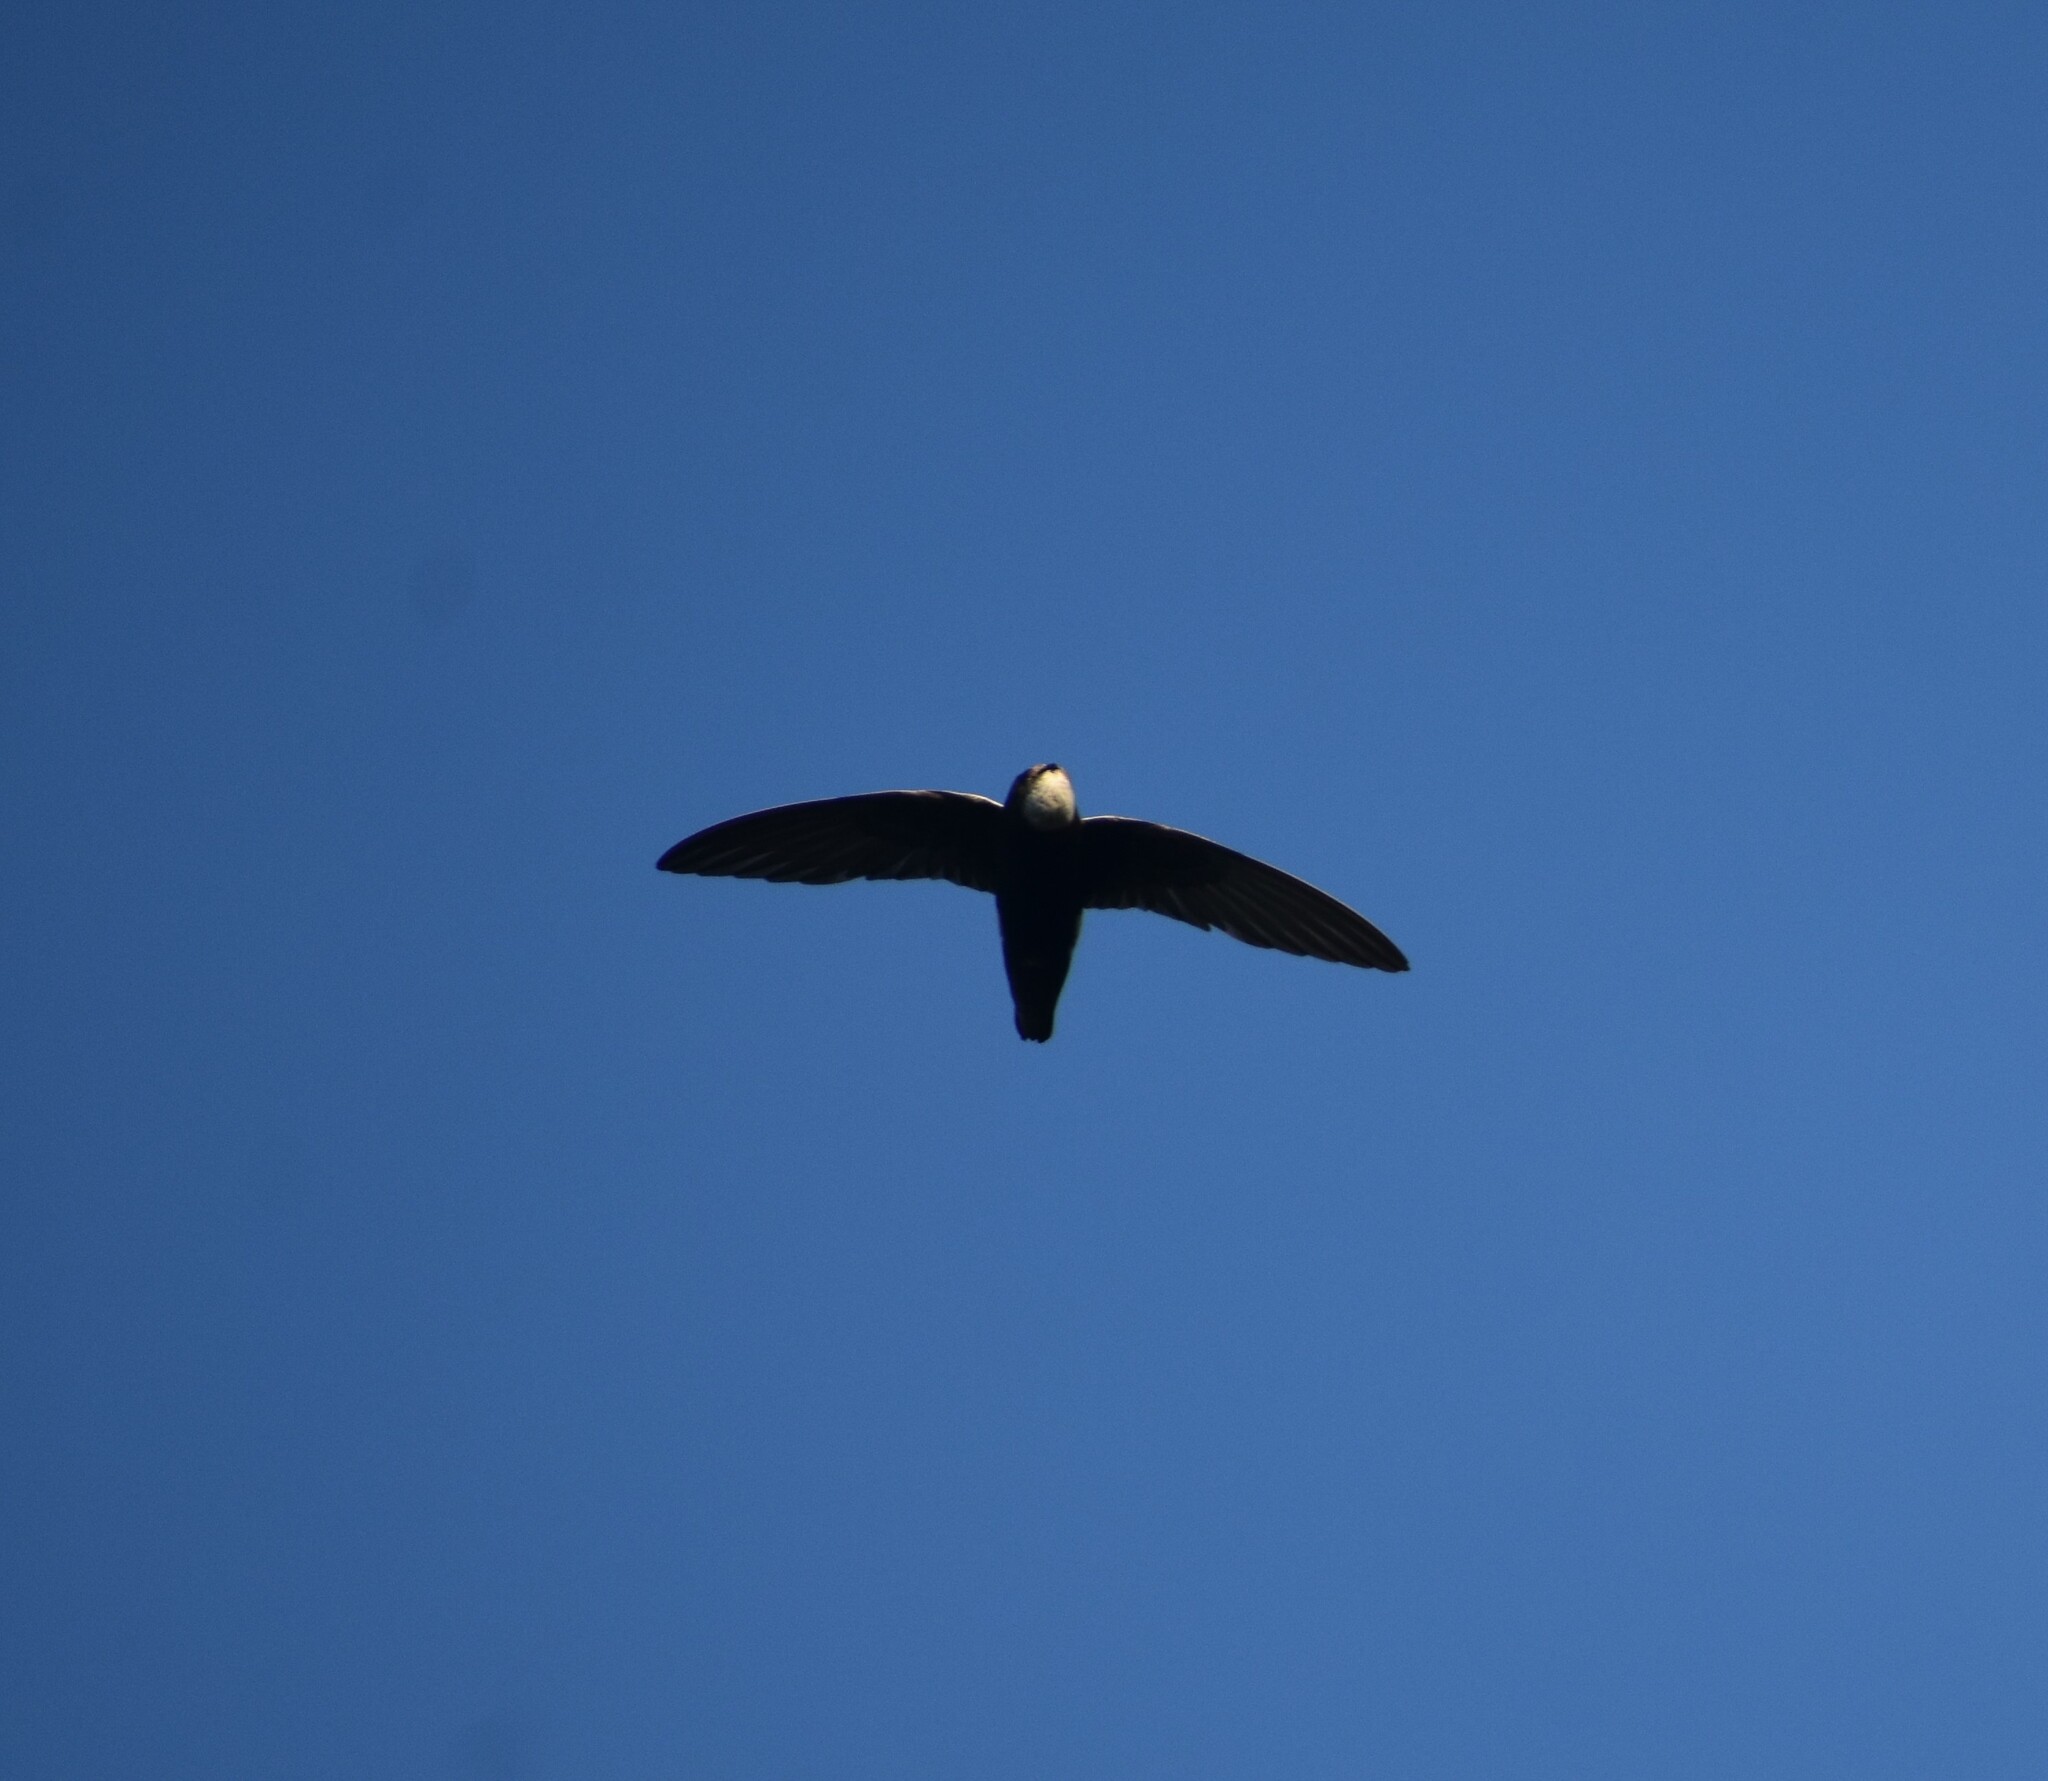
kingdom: Animalia
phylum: Chordata
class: Aves
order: Apodiformes
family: Apodidae
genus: Apus
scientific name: Apus affinis
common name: Little swift
